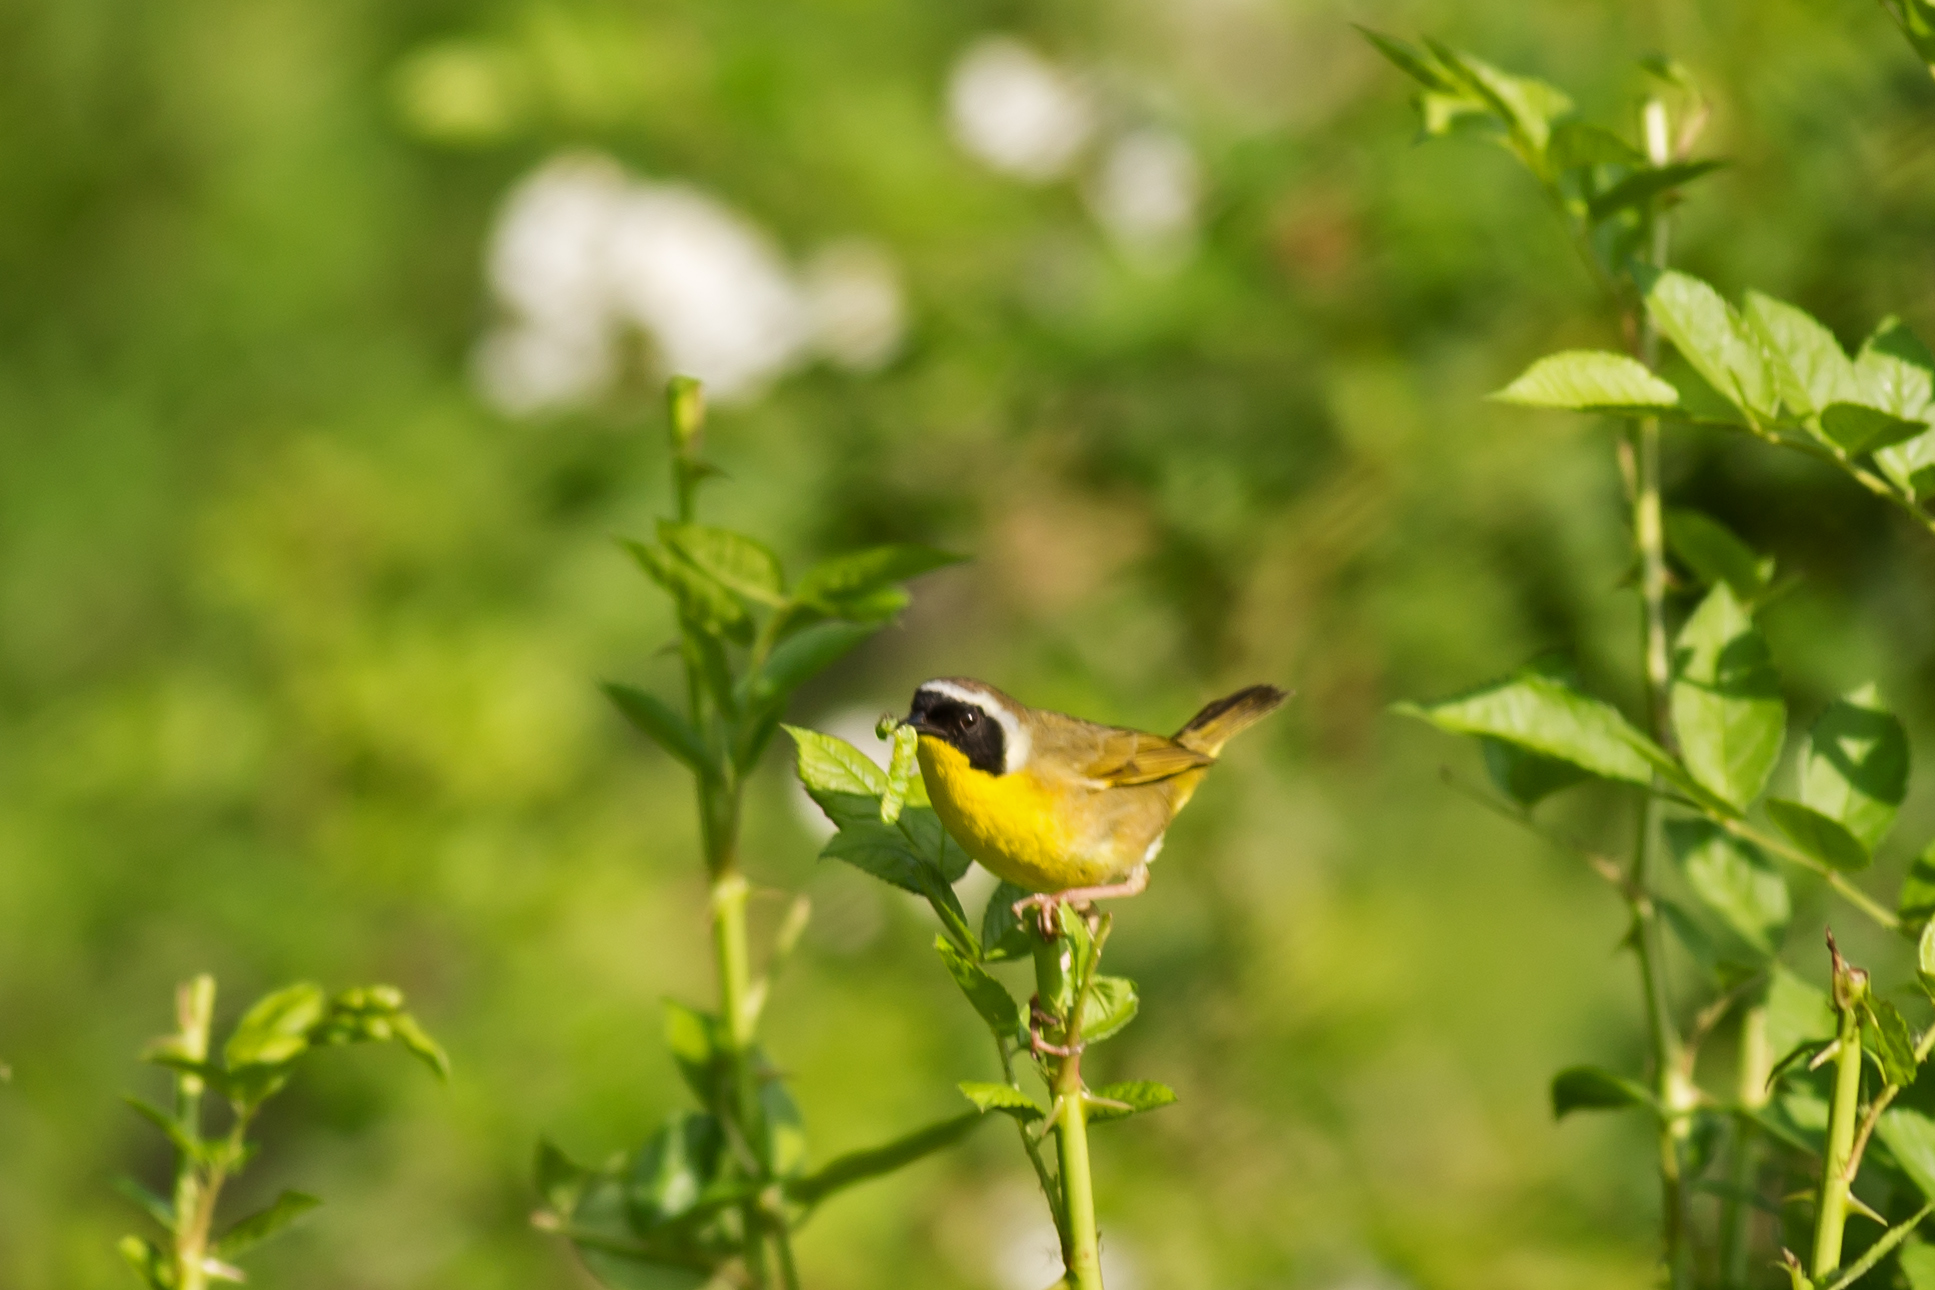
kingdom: Animalia
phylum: Chordata
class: Aves
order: Passeriformes
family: Parulidae
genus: Geothlypis
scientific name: Geothlypis trichas
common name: Common yellowthroat
